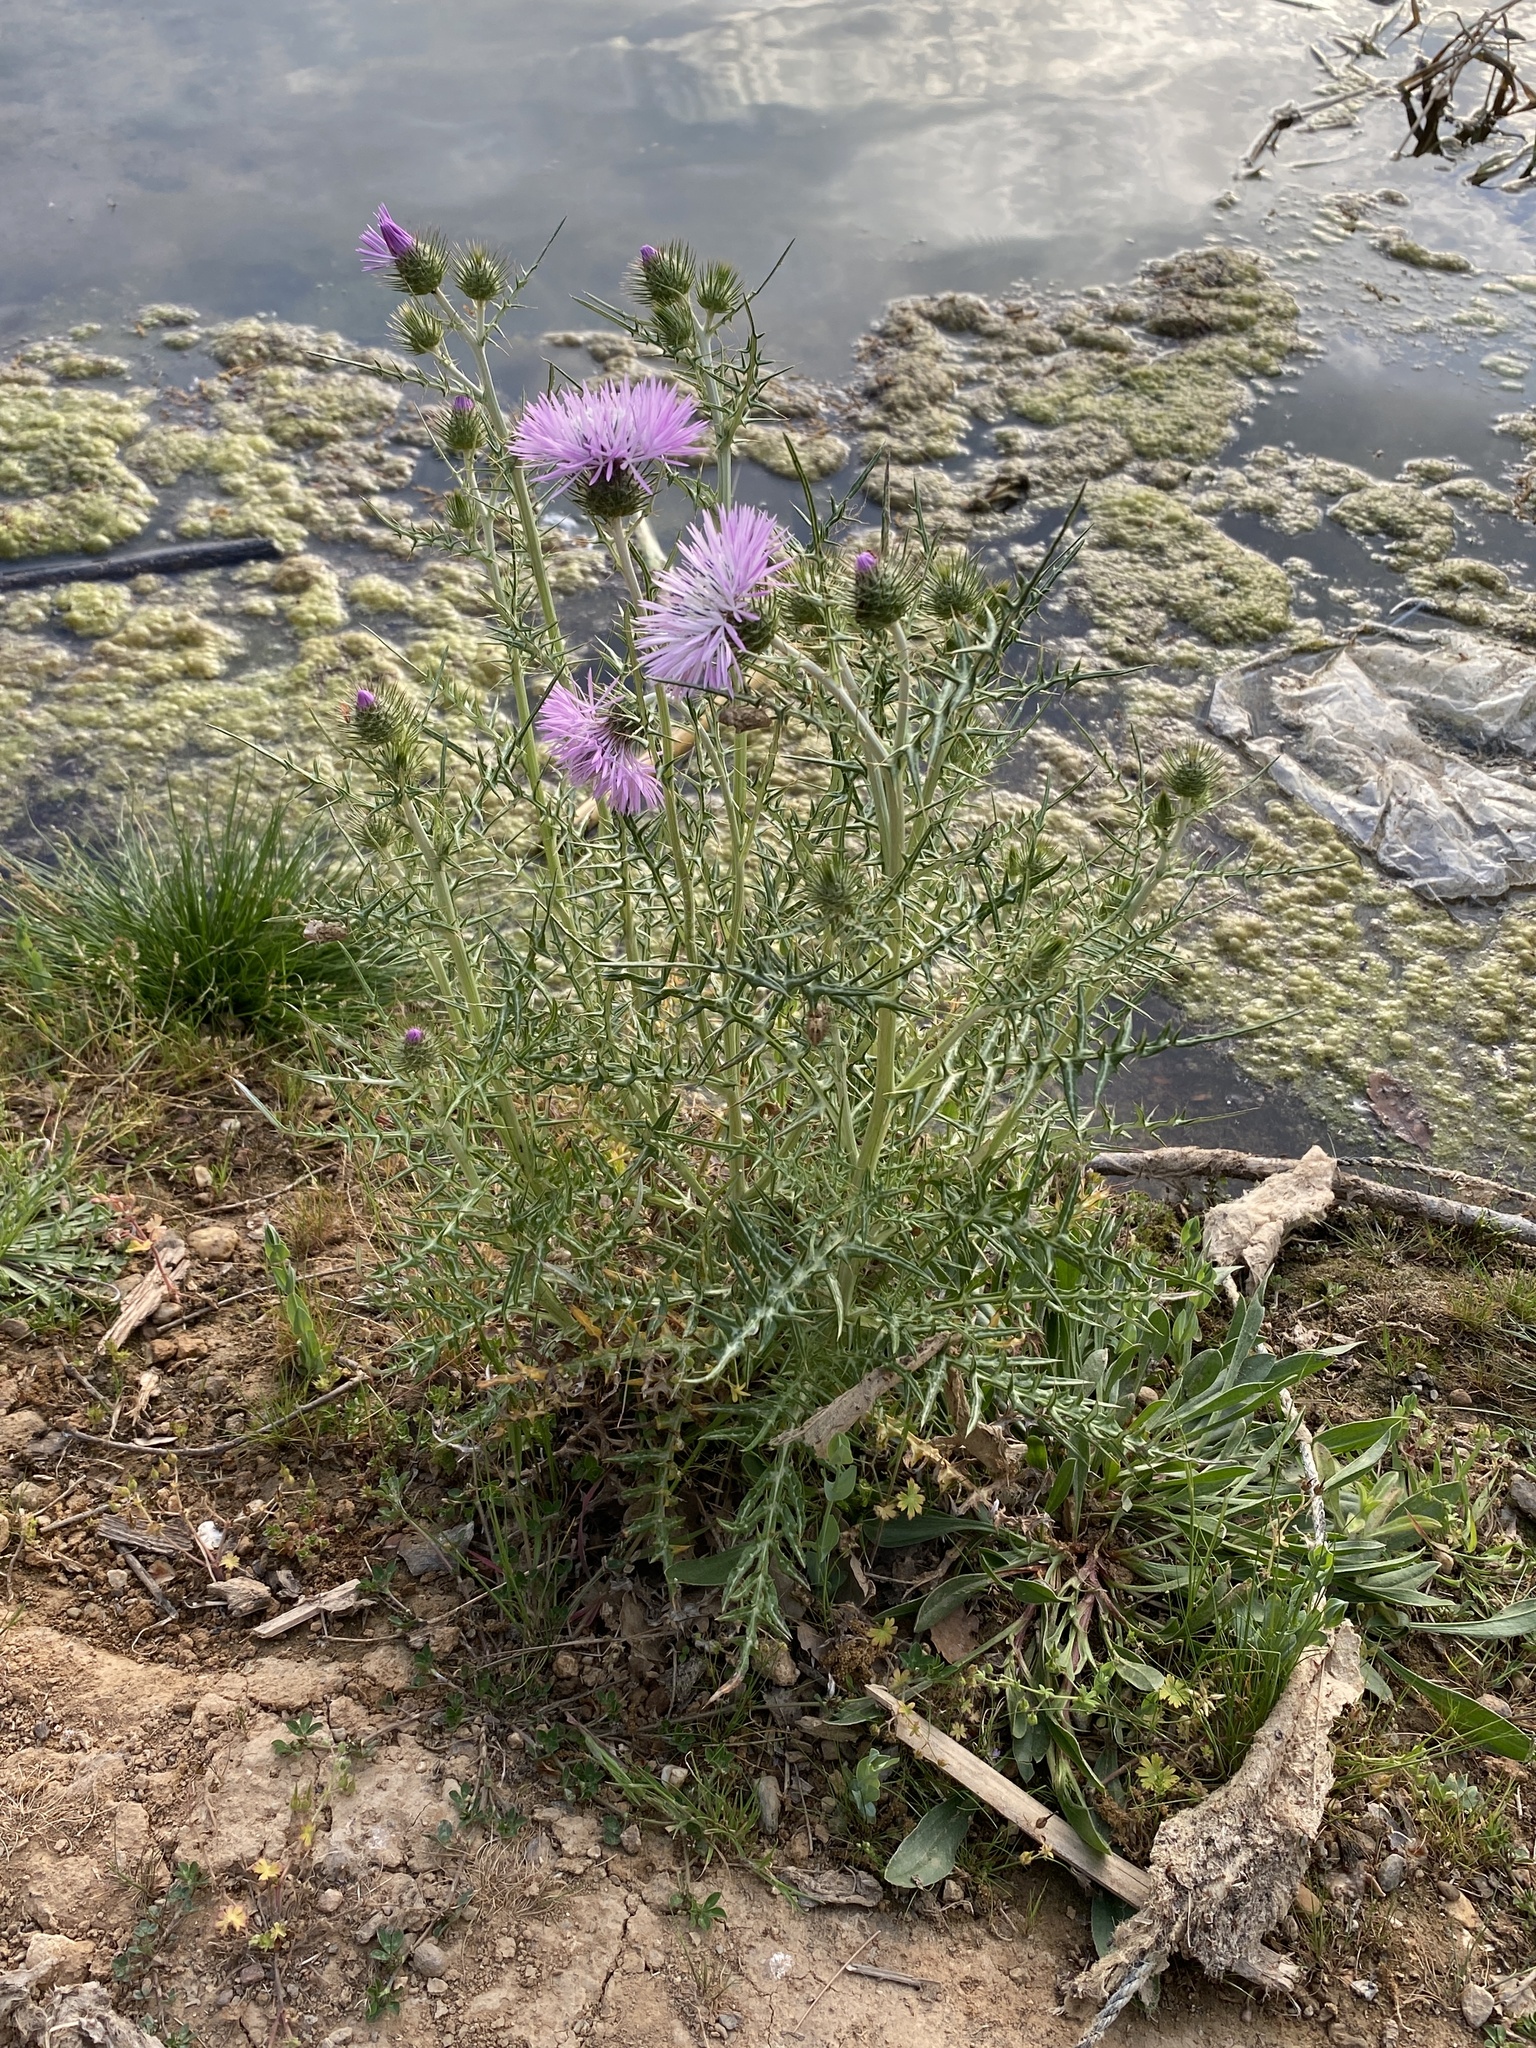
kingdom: Plantae
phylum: Tracheophyta
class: Magnoliopsida
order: Asterales
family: Asteraceae
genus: Galactites
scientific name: Galactites tomentosa
